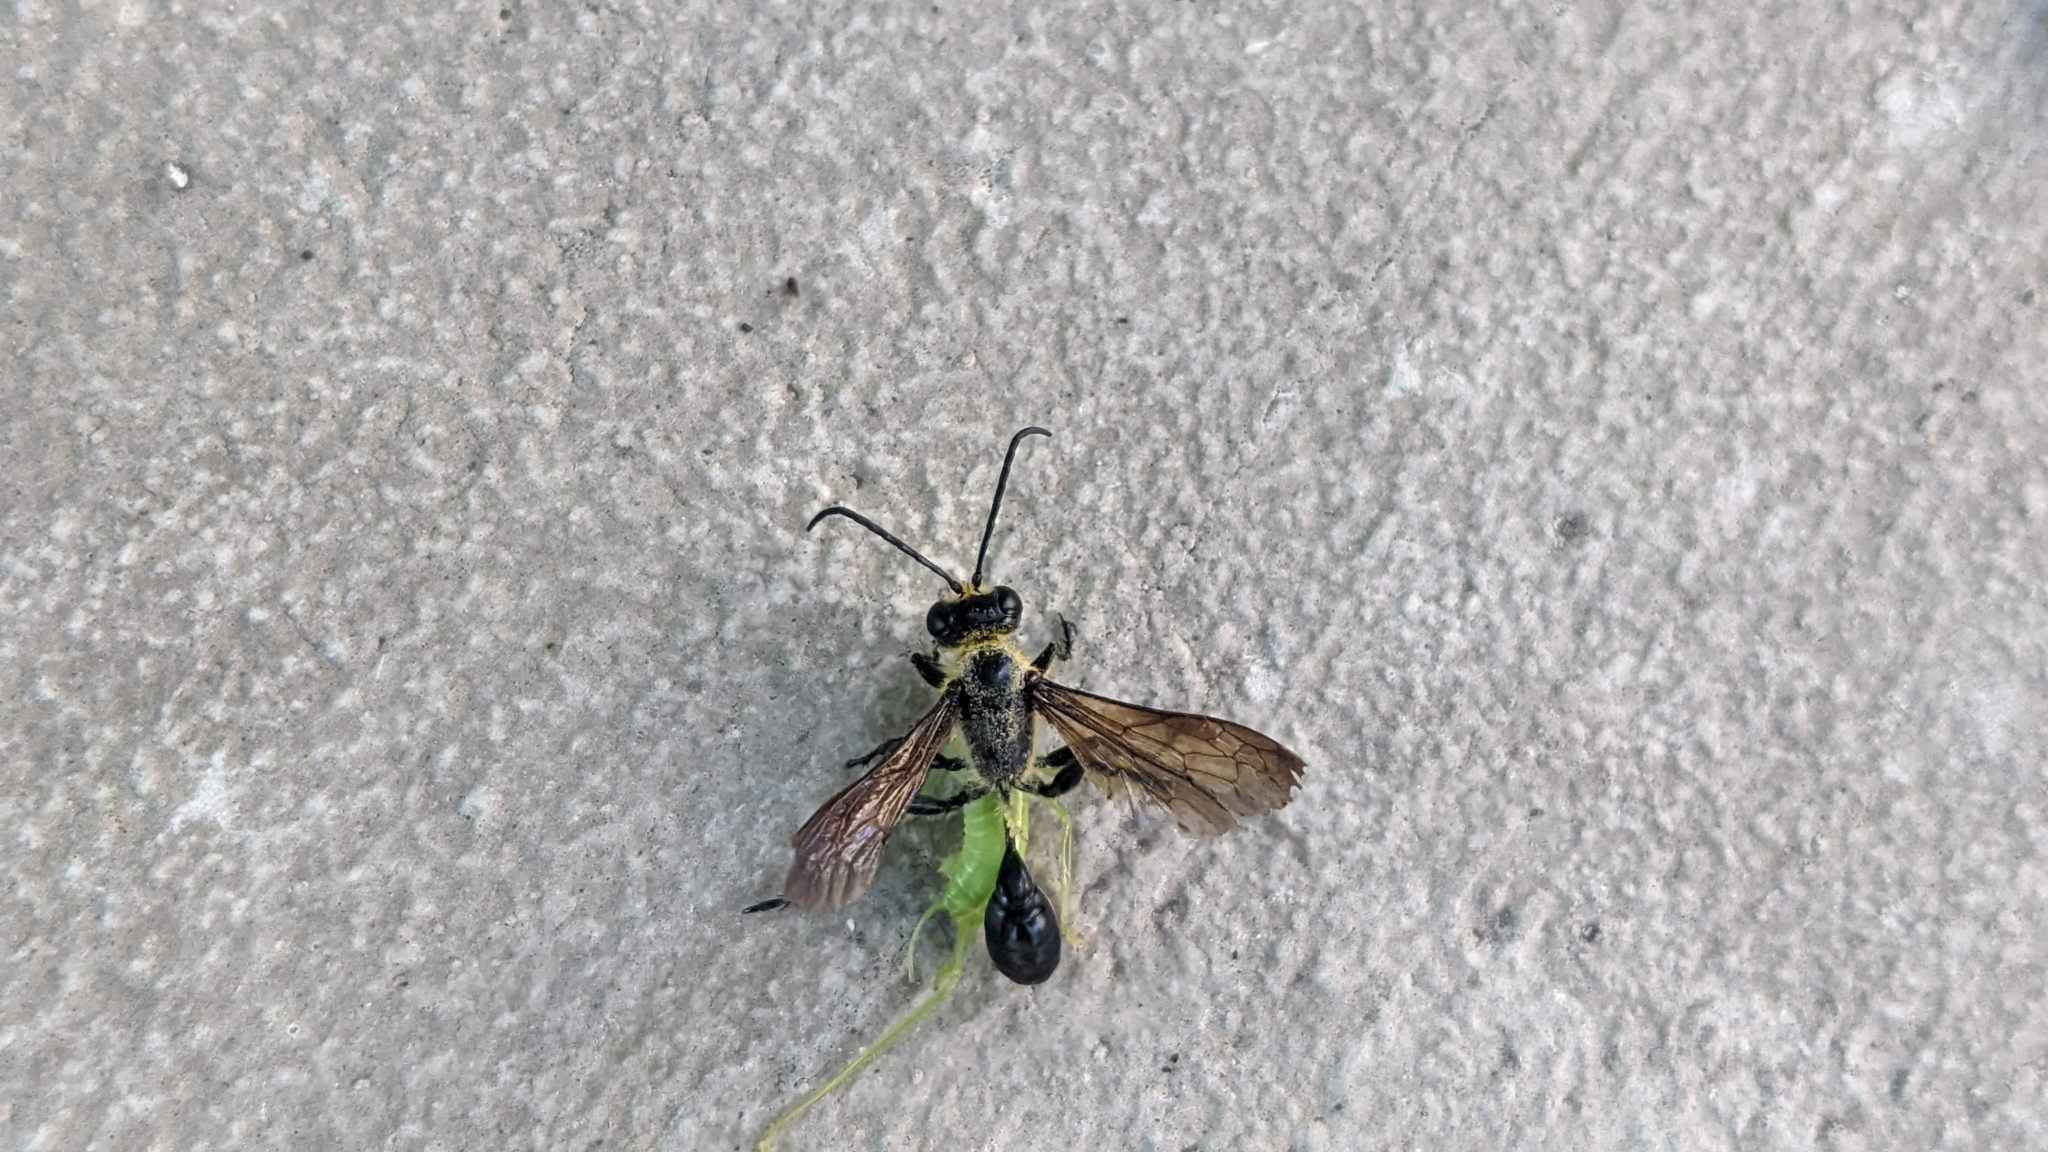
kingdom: Animalia
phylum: Arthropoda
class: Insecta
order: Hymenoptera
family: Sphecidae
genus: Isodontia
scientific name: Isodontia mexicana
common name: Mud dauber
